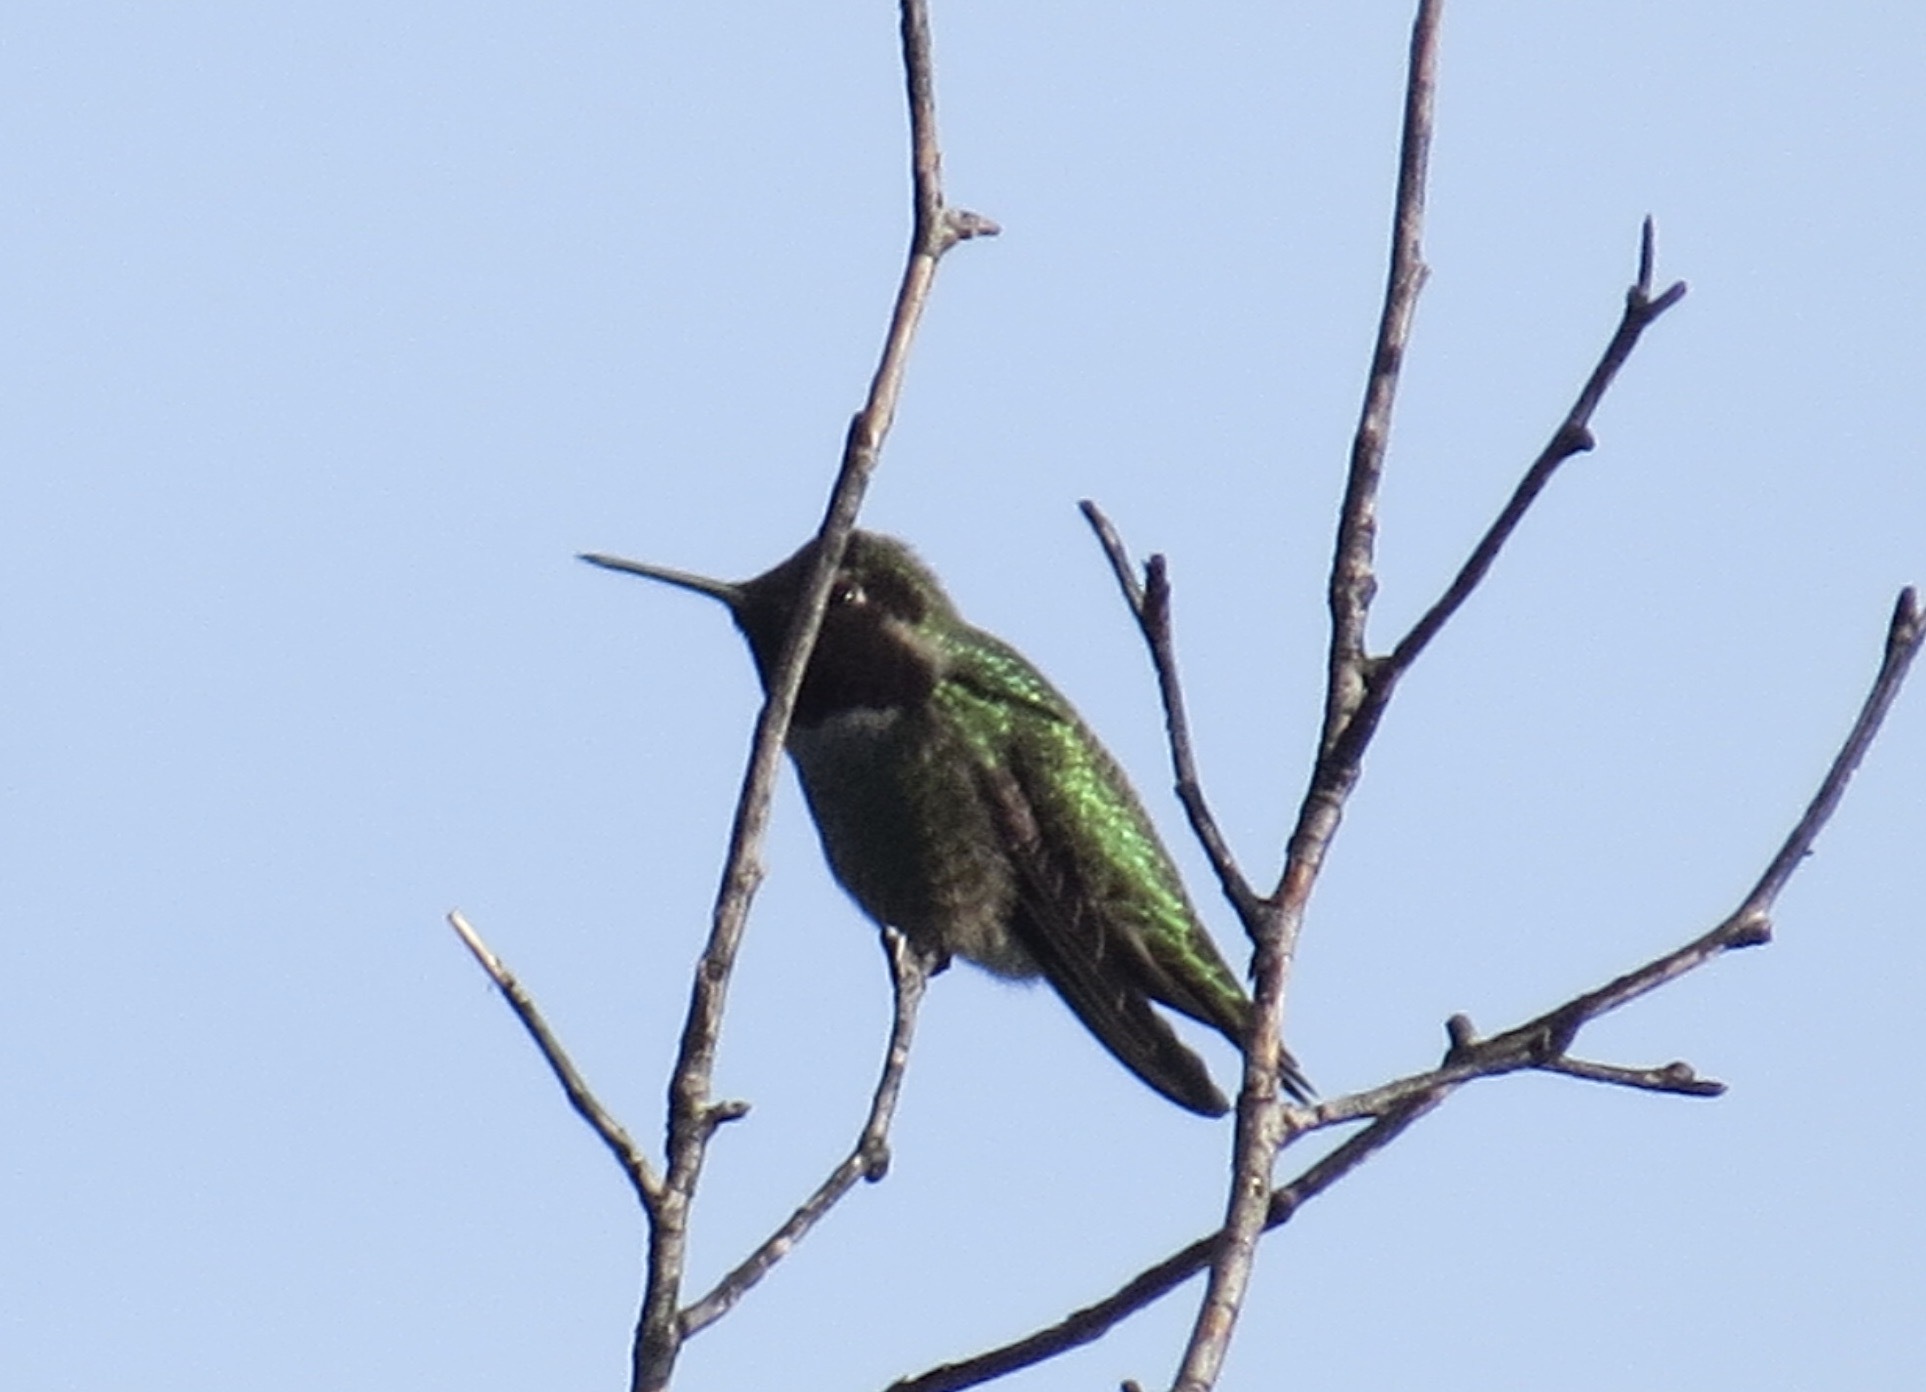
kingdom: Animalia
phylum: Chordata
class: Aves
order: Apodiformes
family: Trochilidae
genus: Calypte
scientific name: Calypte anna
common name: Anna's hummingbird
